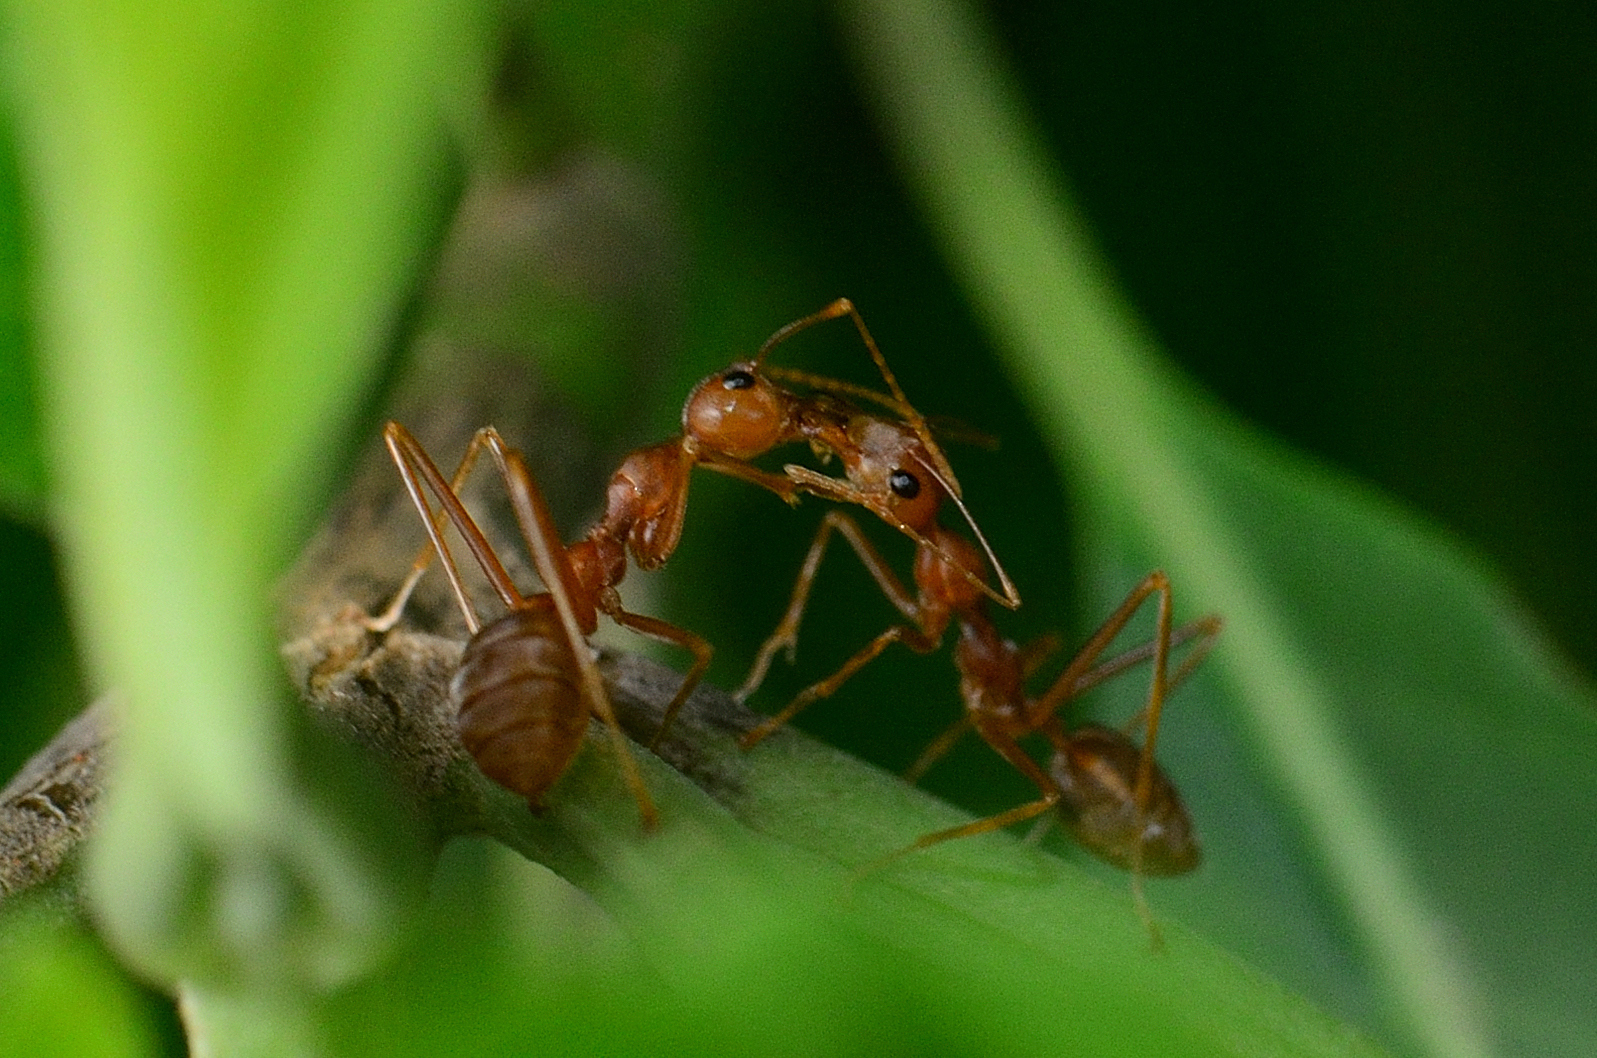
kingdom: Animalia
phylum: Arthropoda
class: Insecta
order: Hymenoptera
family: Formicidae
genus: Oecophylla
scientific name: Oecophylla smaragdina
